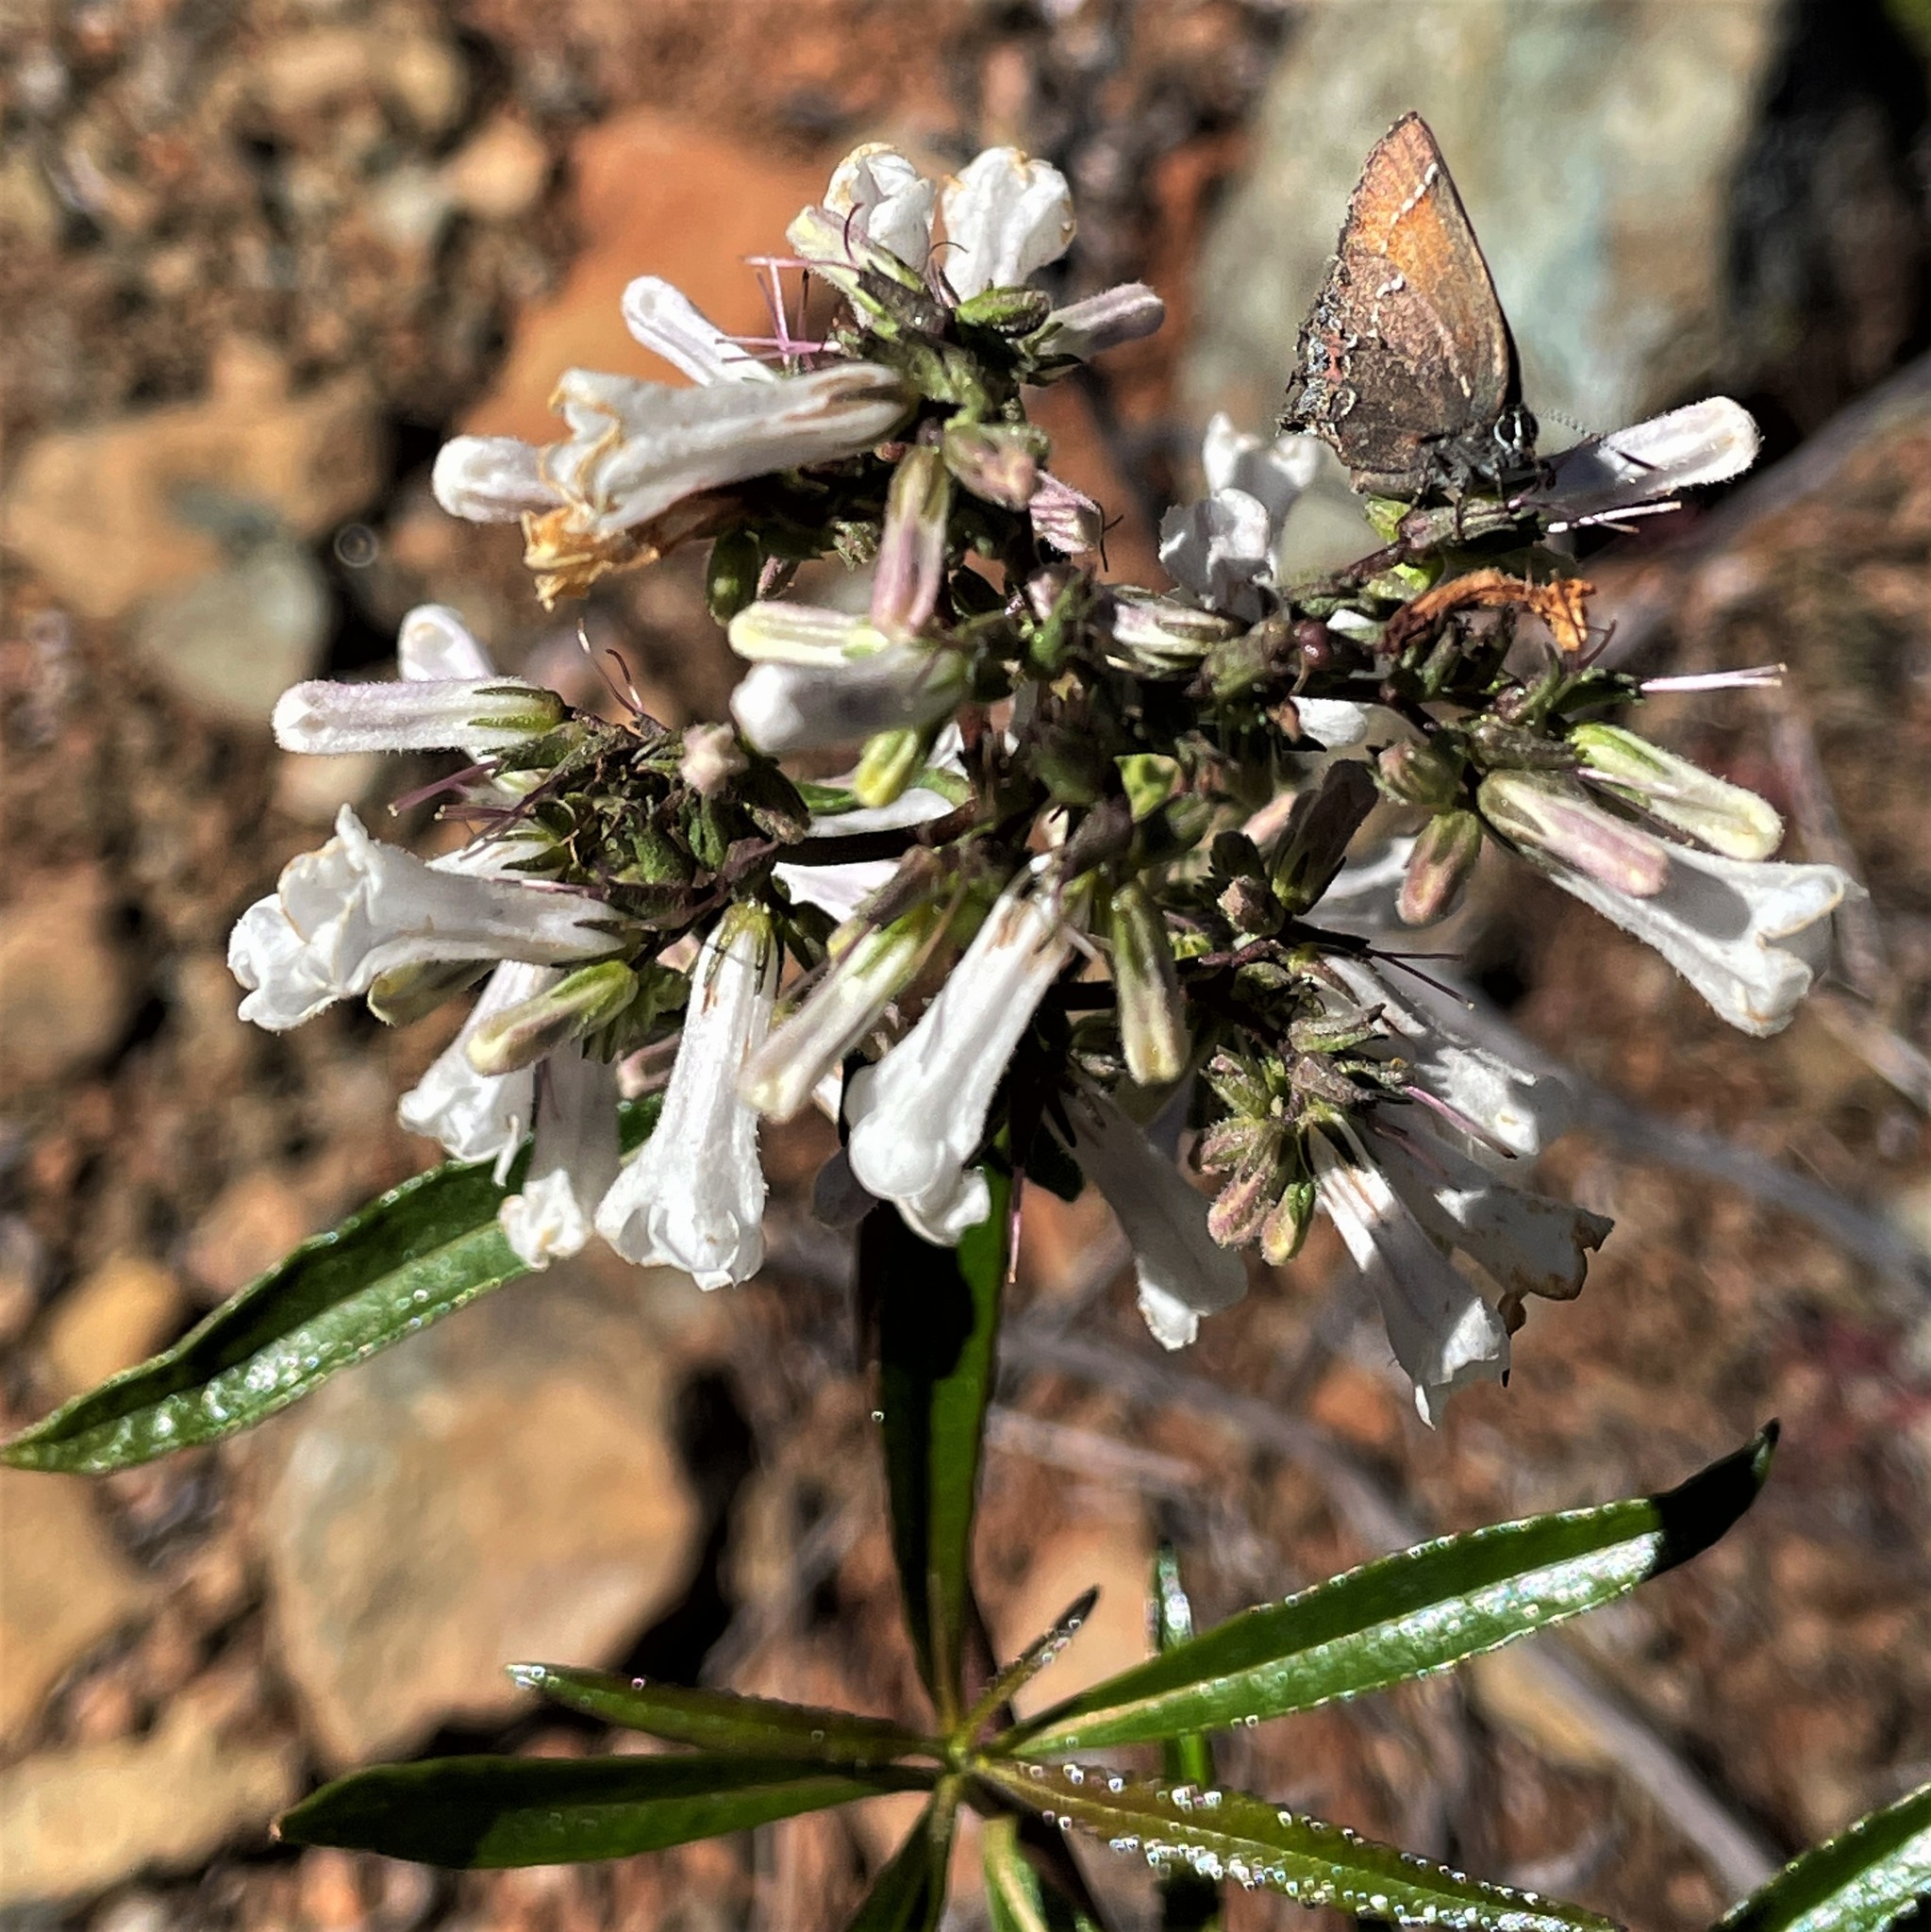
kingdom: Animalia
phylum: Arthropoda
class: Insecta
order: Lepidoptera
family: Lycaenidae
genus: Callophrys
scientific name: Callophrys muiri
